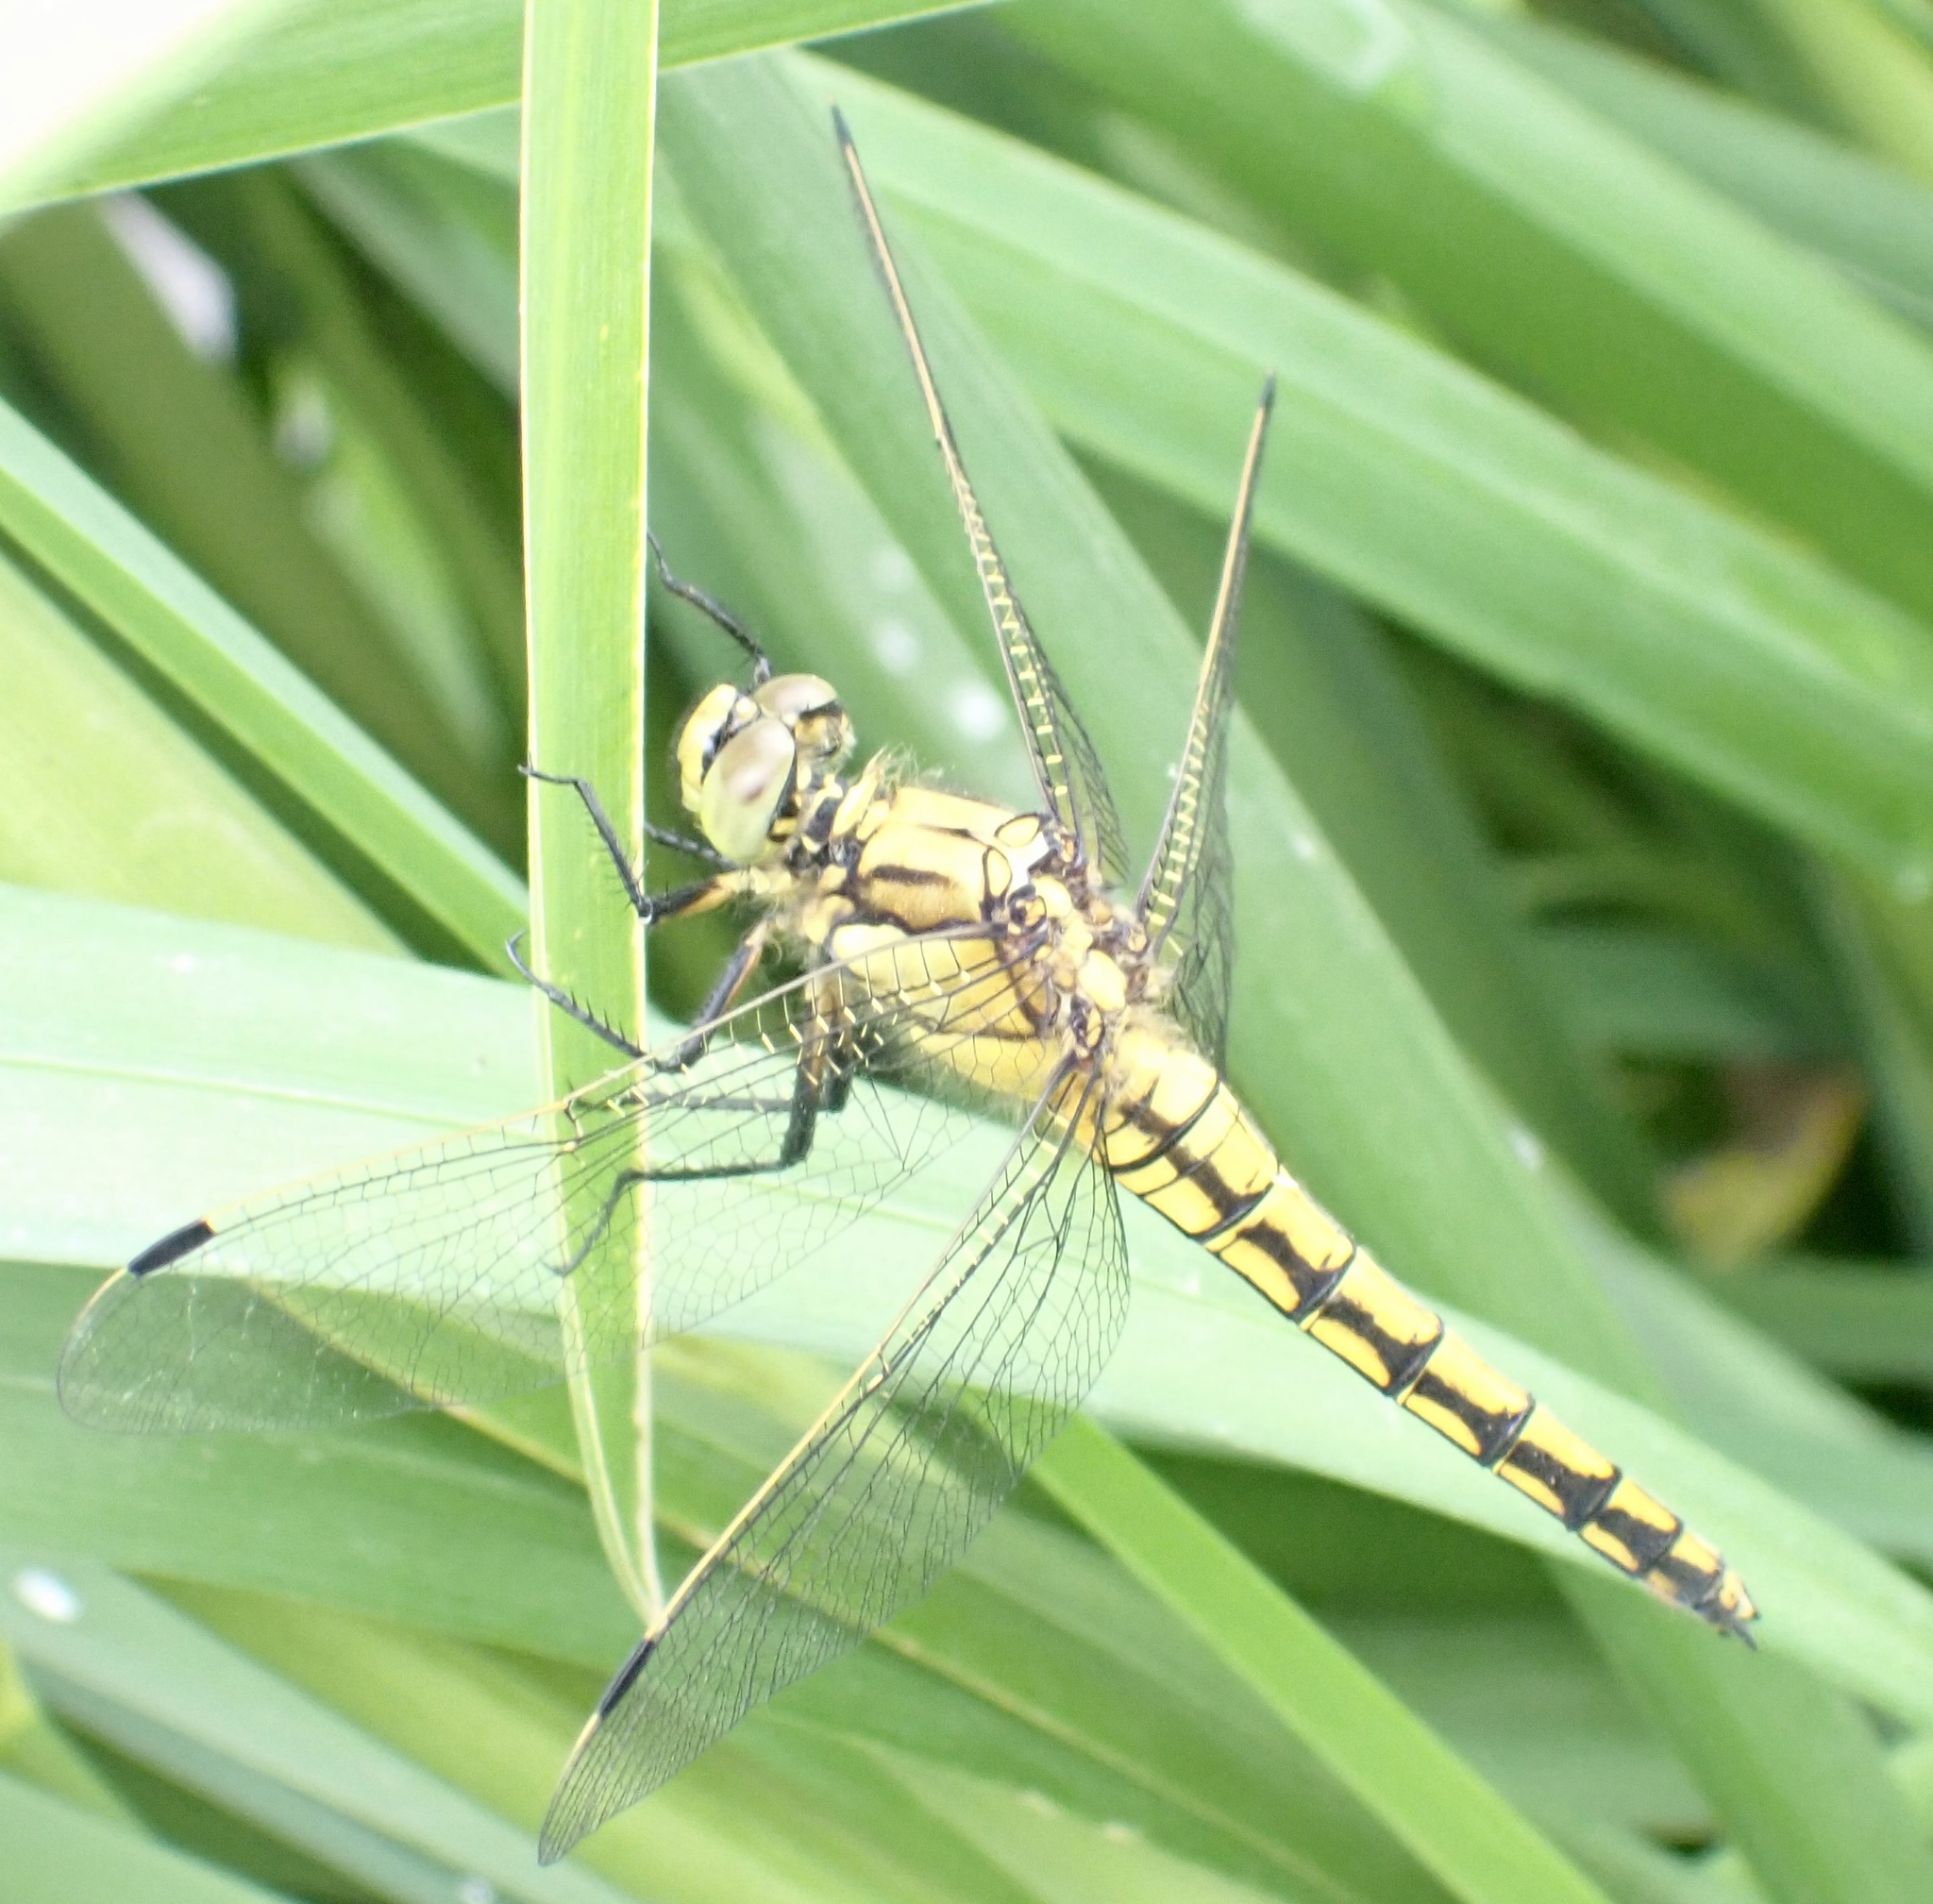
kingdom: Animalia
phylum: Arthropoda
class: Insecta
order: Odonata
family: Libellulidae
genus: Orthetrum
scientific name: Orthetrum cancellatum
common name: Black-tailed skimmer
